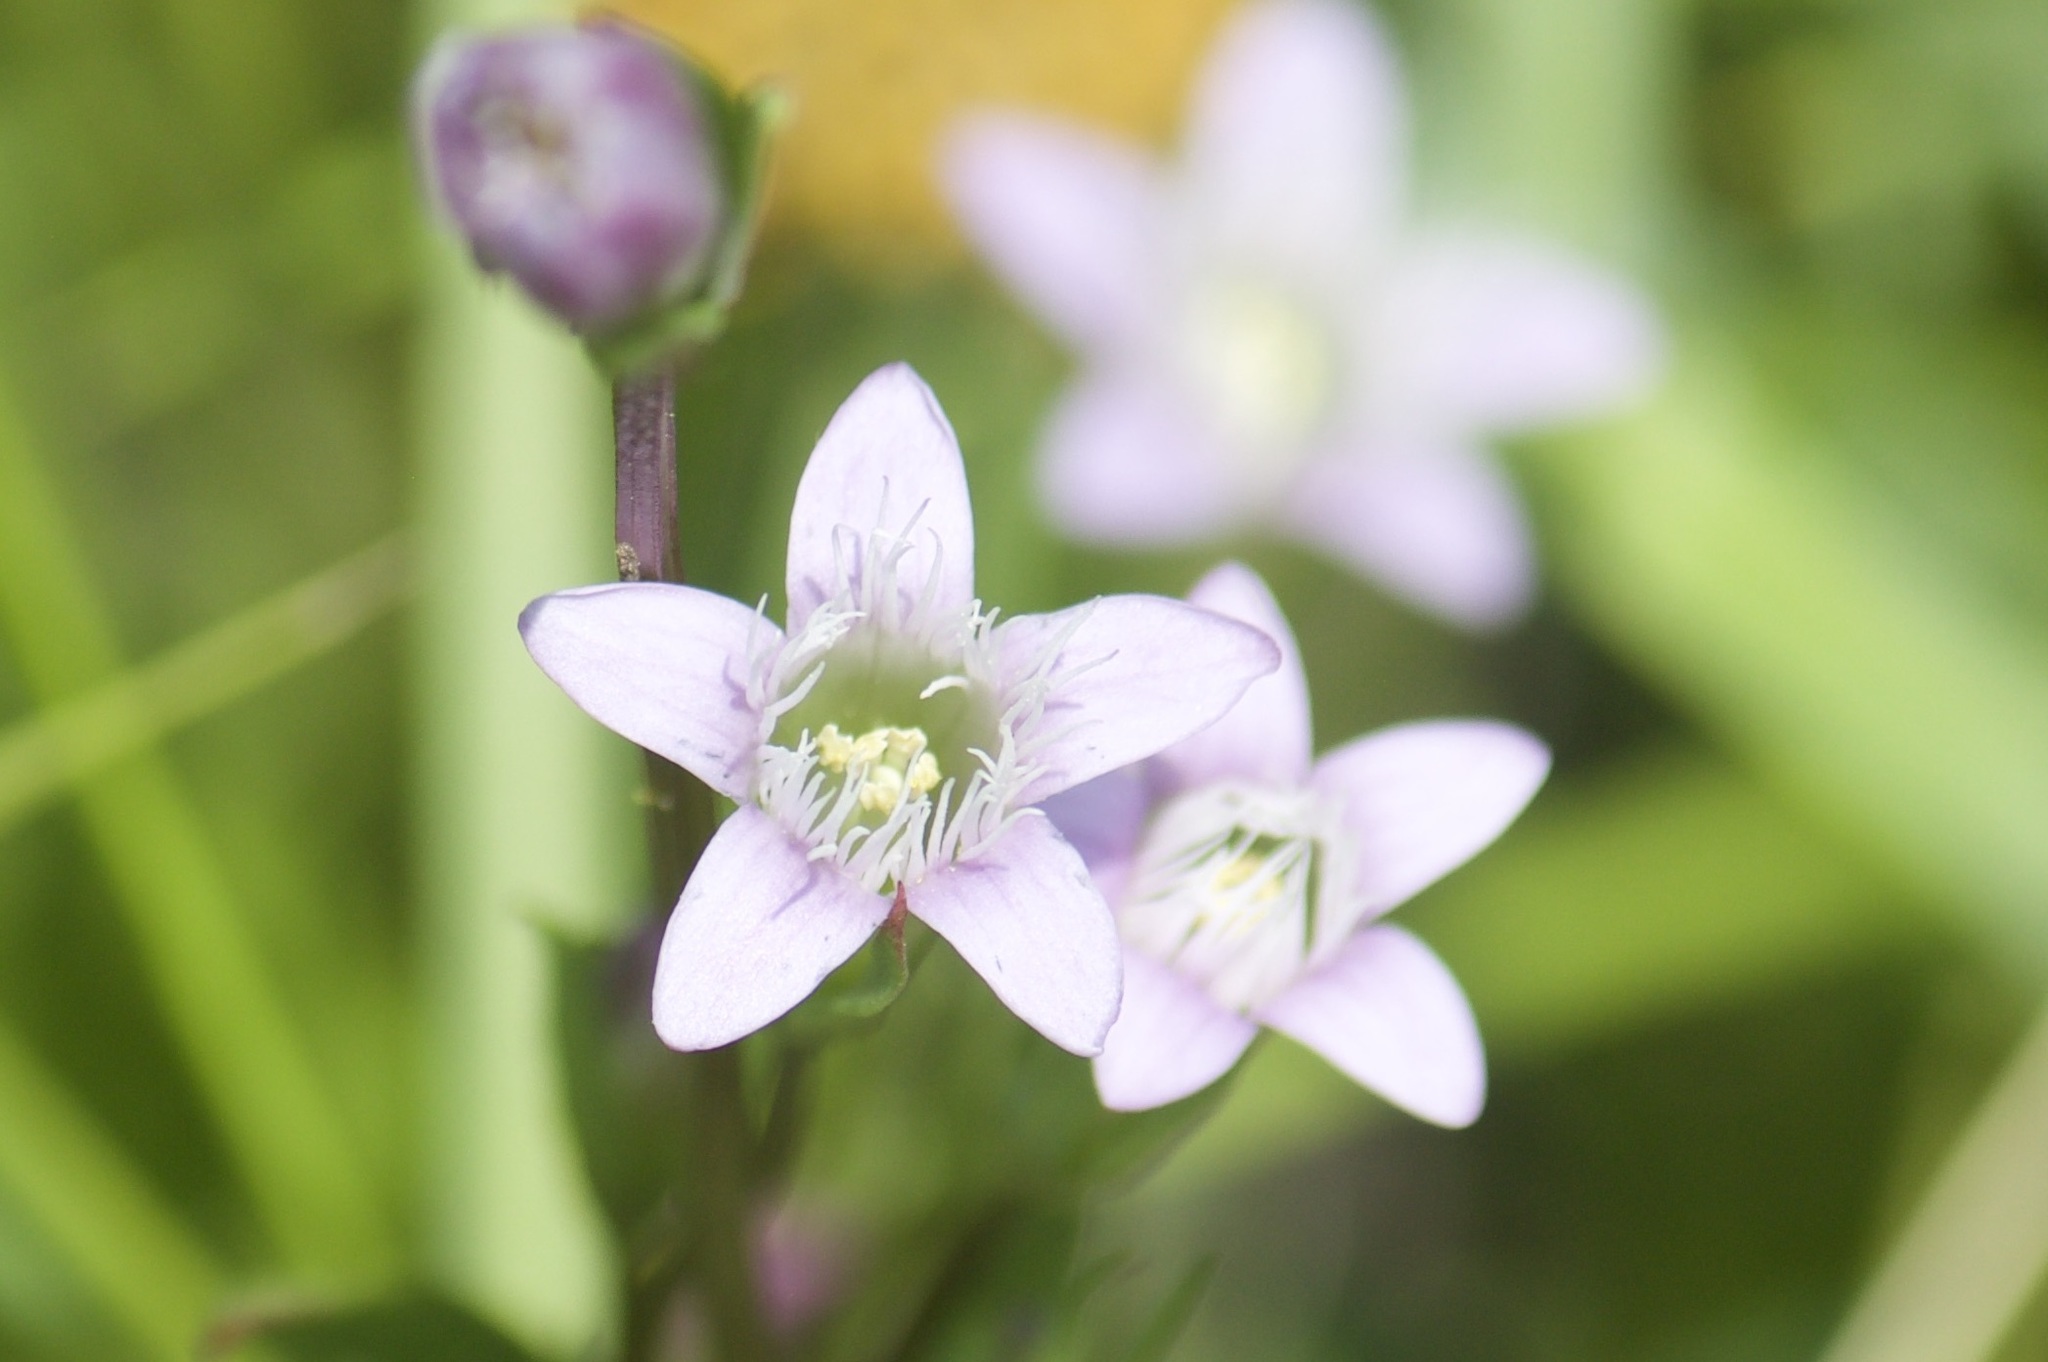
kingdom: Plantae
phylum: Tracheophyta
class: Magnoliopsida
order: Gentianales
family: Gentianaceae
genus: Gentianella
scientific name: Gentianella amarella
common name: Autumn gentian
